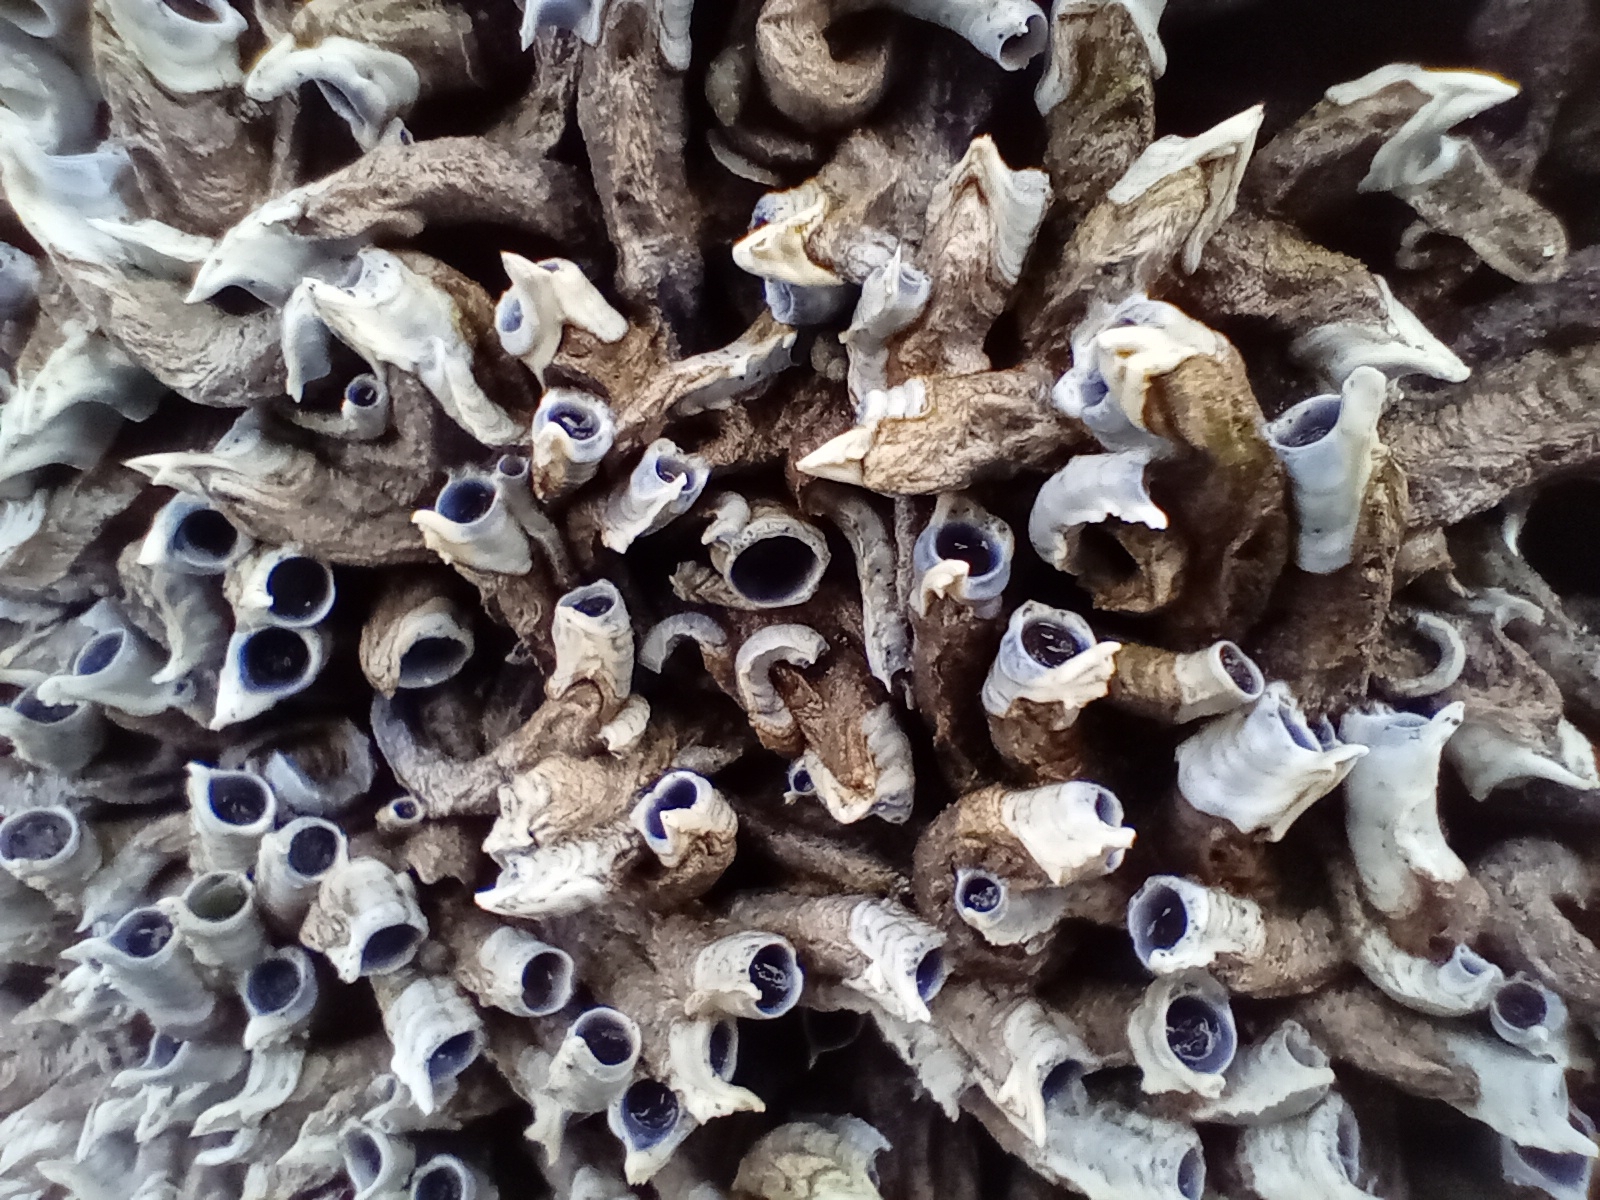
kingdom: Animalia
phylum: Annelida
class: Polychaeta
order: Sabellida
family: Serpulidae
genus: Spirobranchus
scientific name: Spirobranchus cariniferus
